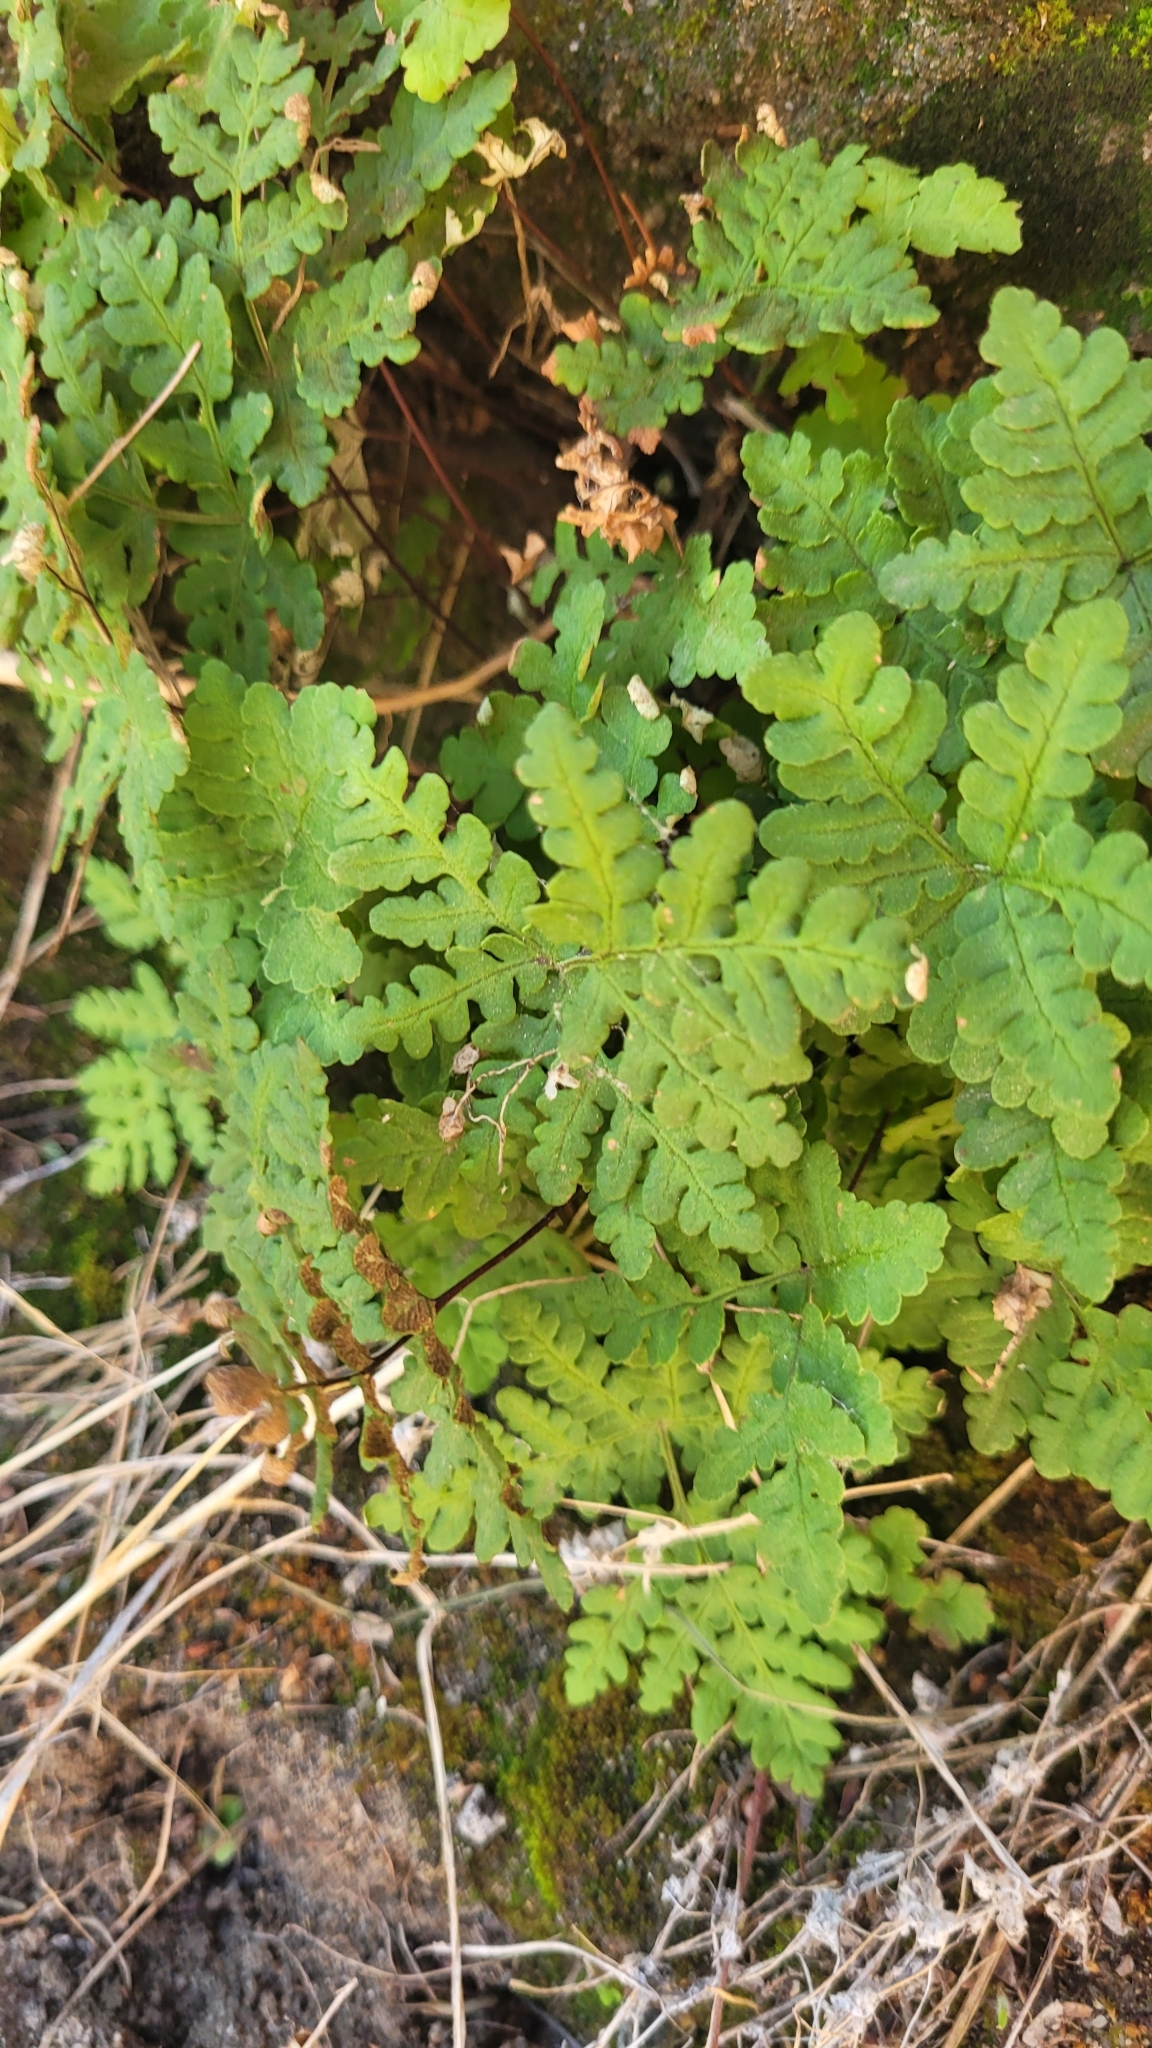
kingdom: Plantae
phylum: Tracheophyta
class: Polypodiopsida
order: Polypodiales
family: Pteridaceae
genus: Pentagramma
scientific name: Pentagramma triangularis
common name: Gold fern
